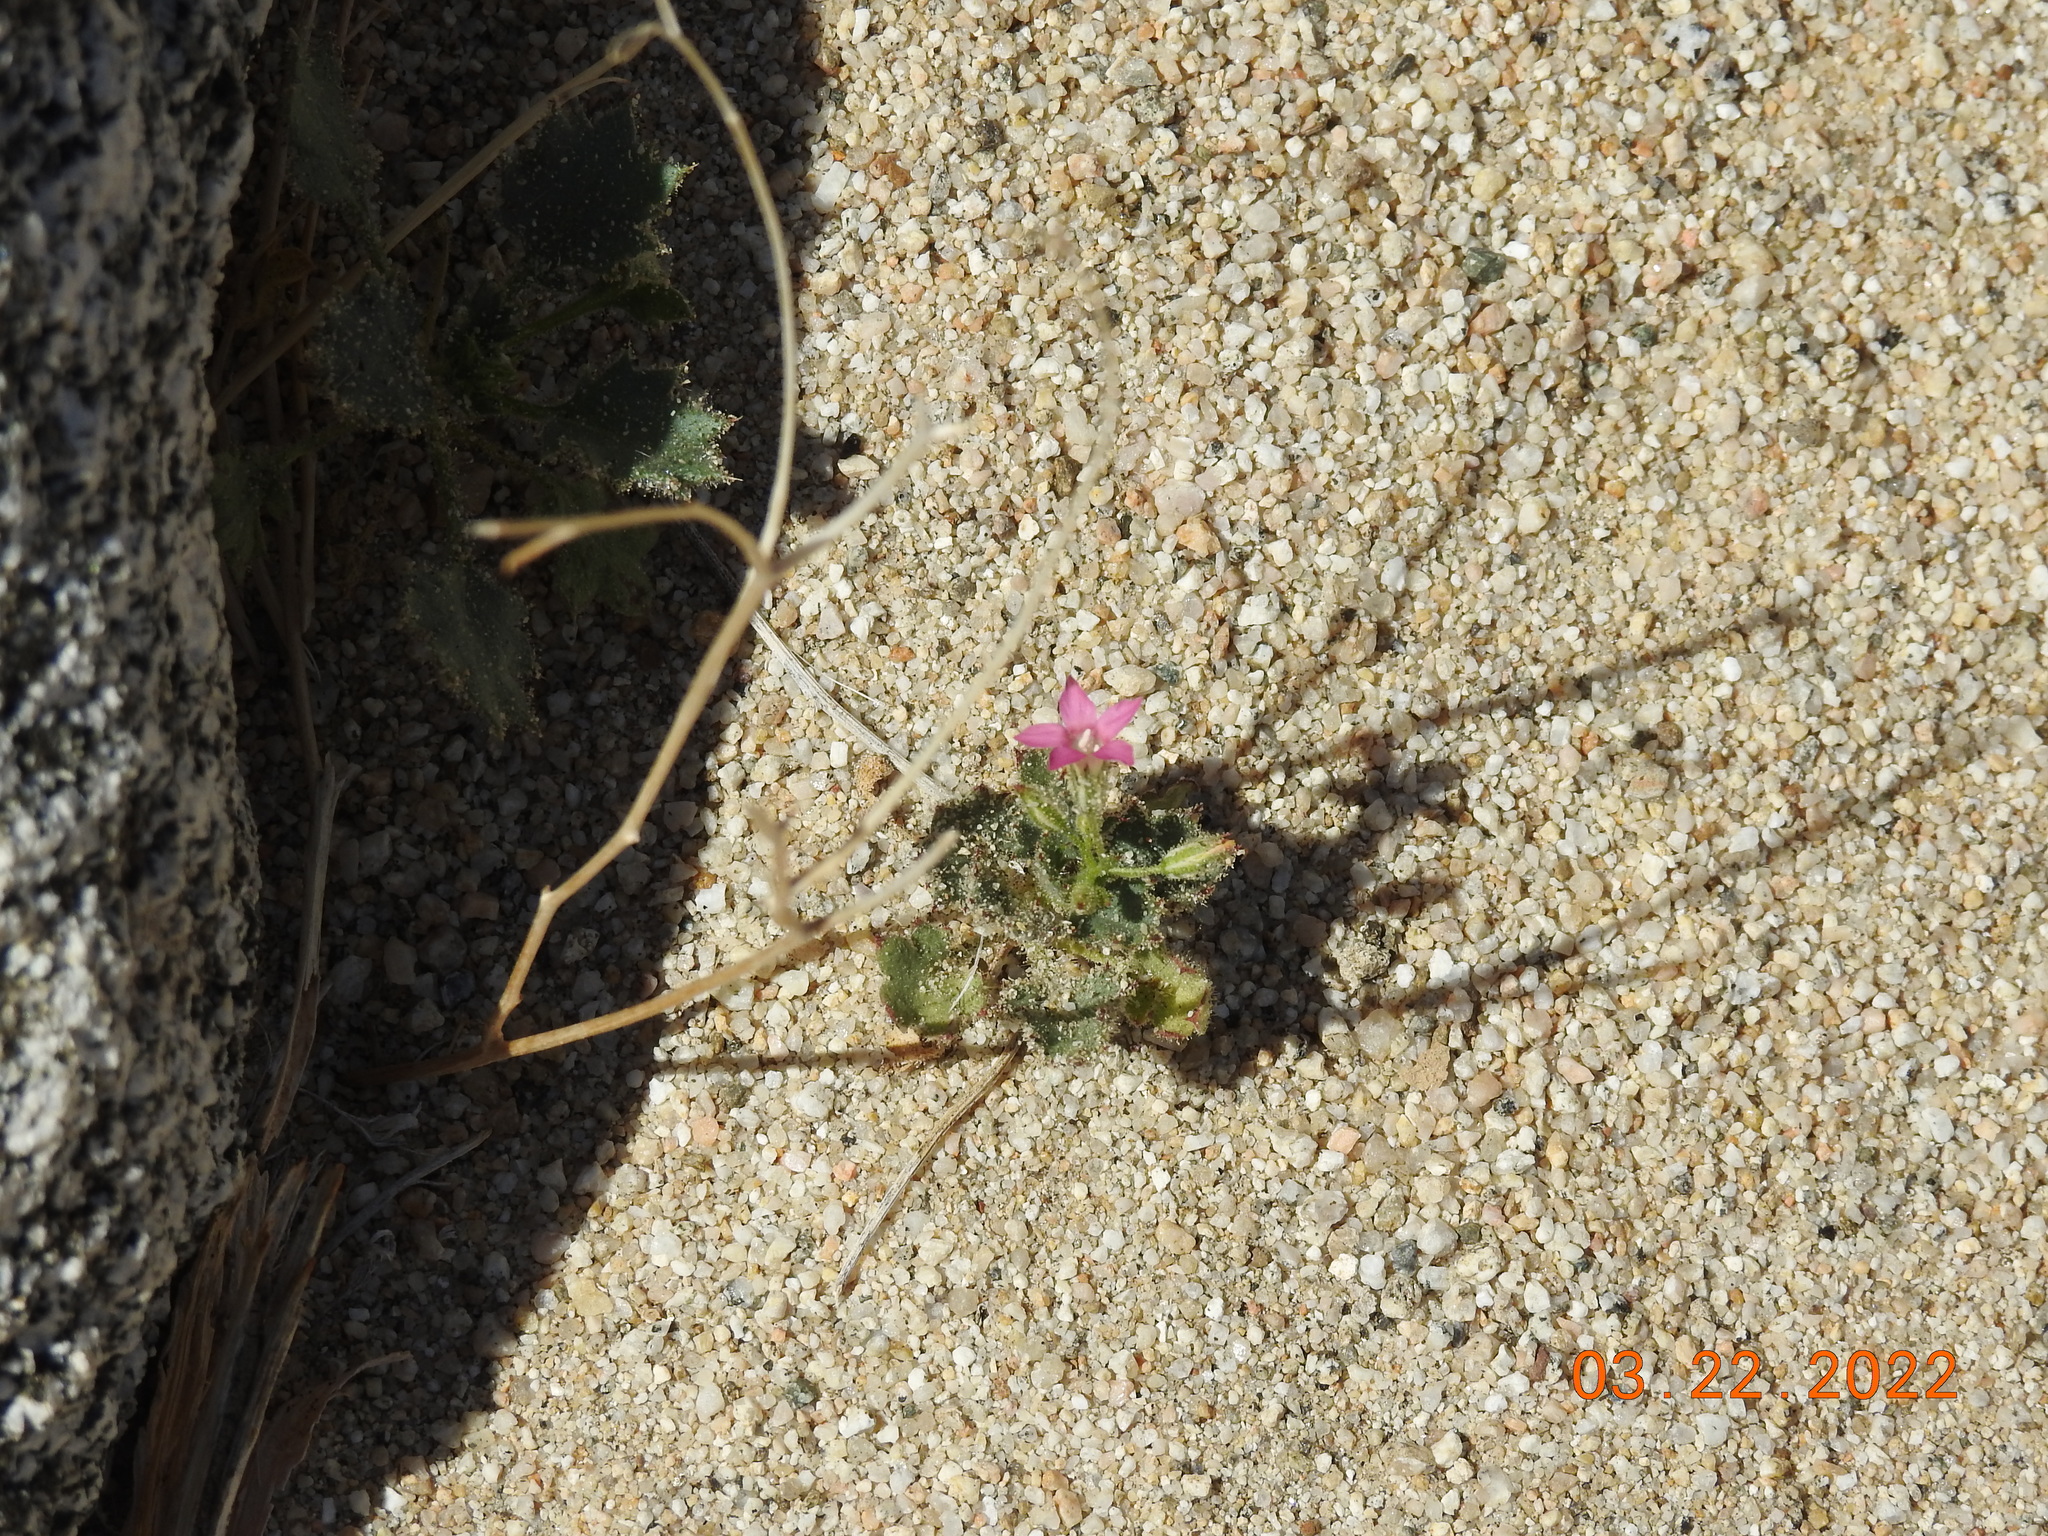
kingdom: Plantae
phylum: Tracheophyta
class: Magnoliopsida
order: Ericales
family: Polemoniaceae
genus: Aliciella
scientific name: Aliciella latifolia
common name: Broad-leaf gilia
